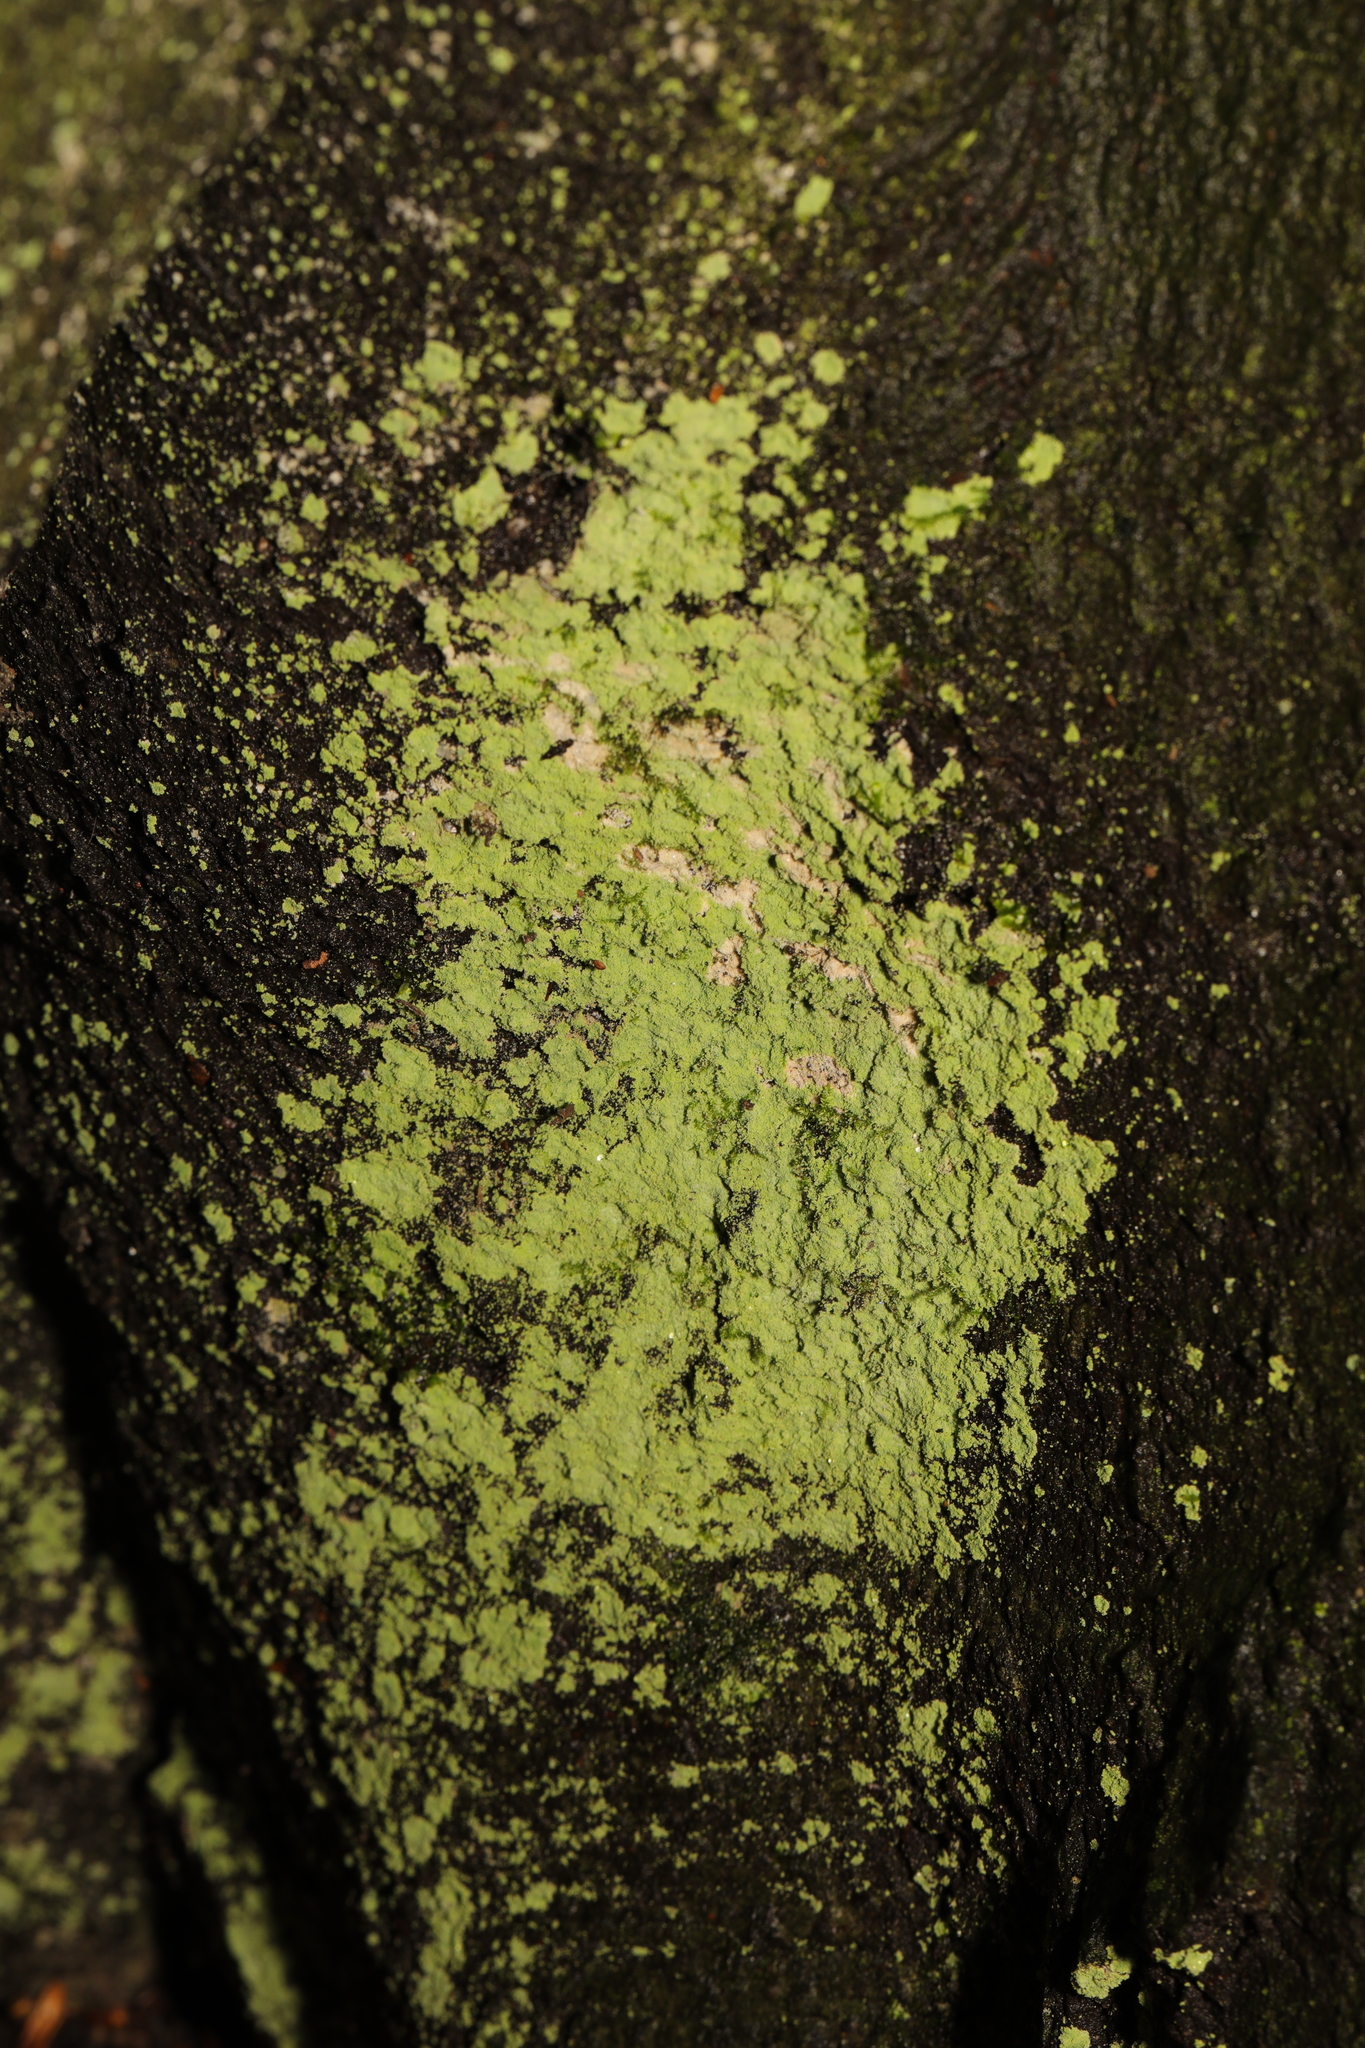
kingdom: Fungi
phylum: Ascomycota
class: Lecanoromycetes
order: Lecanorales
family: Stereocaulaceae
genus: Lepraria
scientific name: Lepraria
